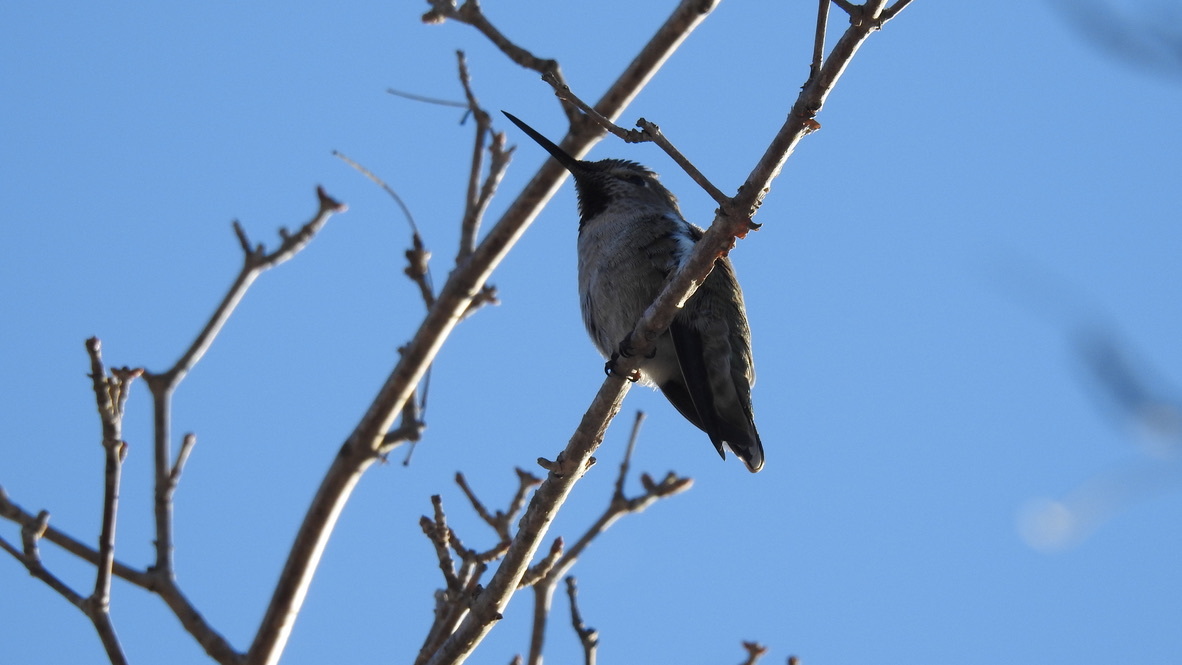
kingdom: Animalia
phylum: Chordata
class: Aves
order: Apodiformes
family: Trochilidae
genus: Calypte
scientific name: Calypte anna
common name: Anna's hummingbird
